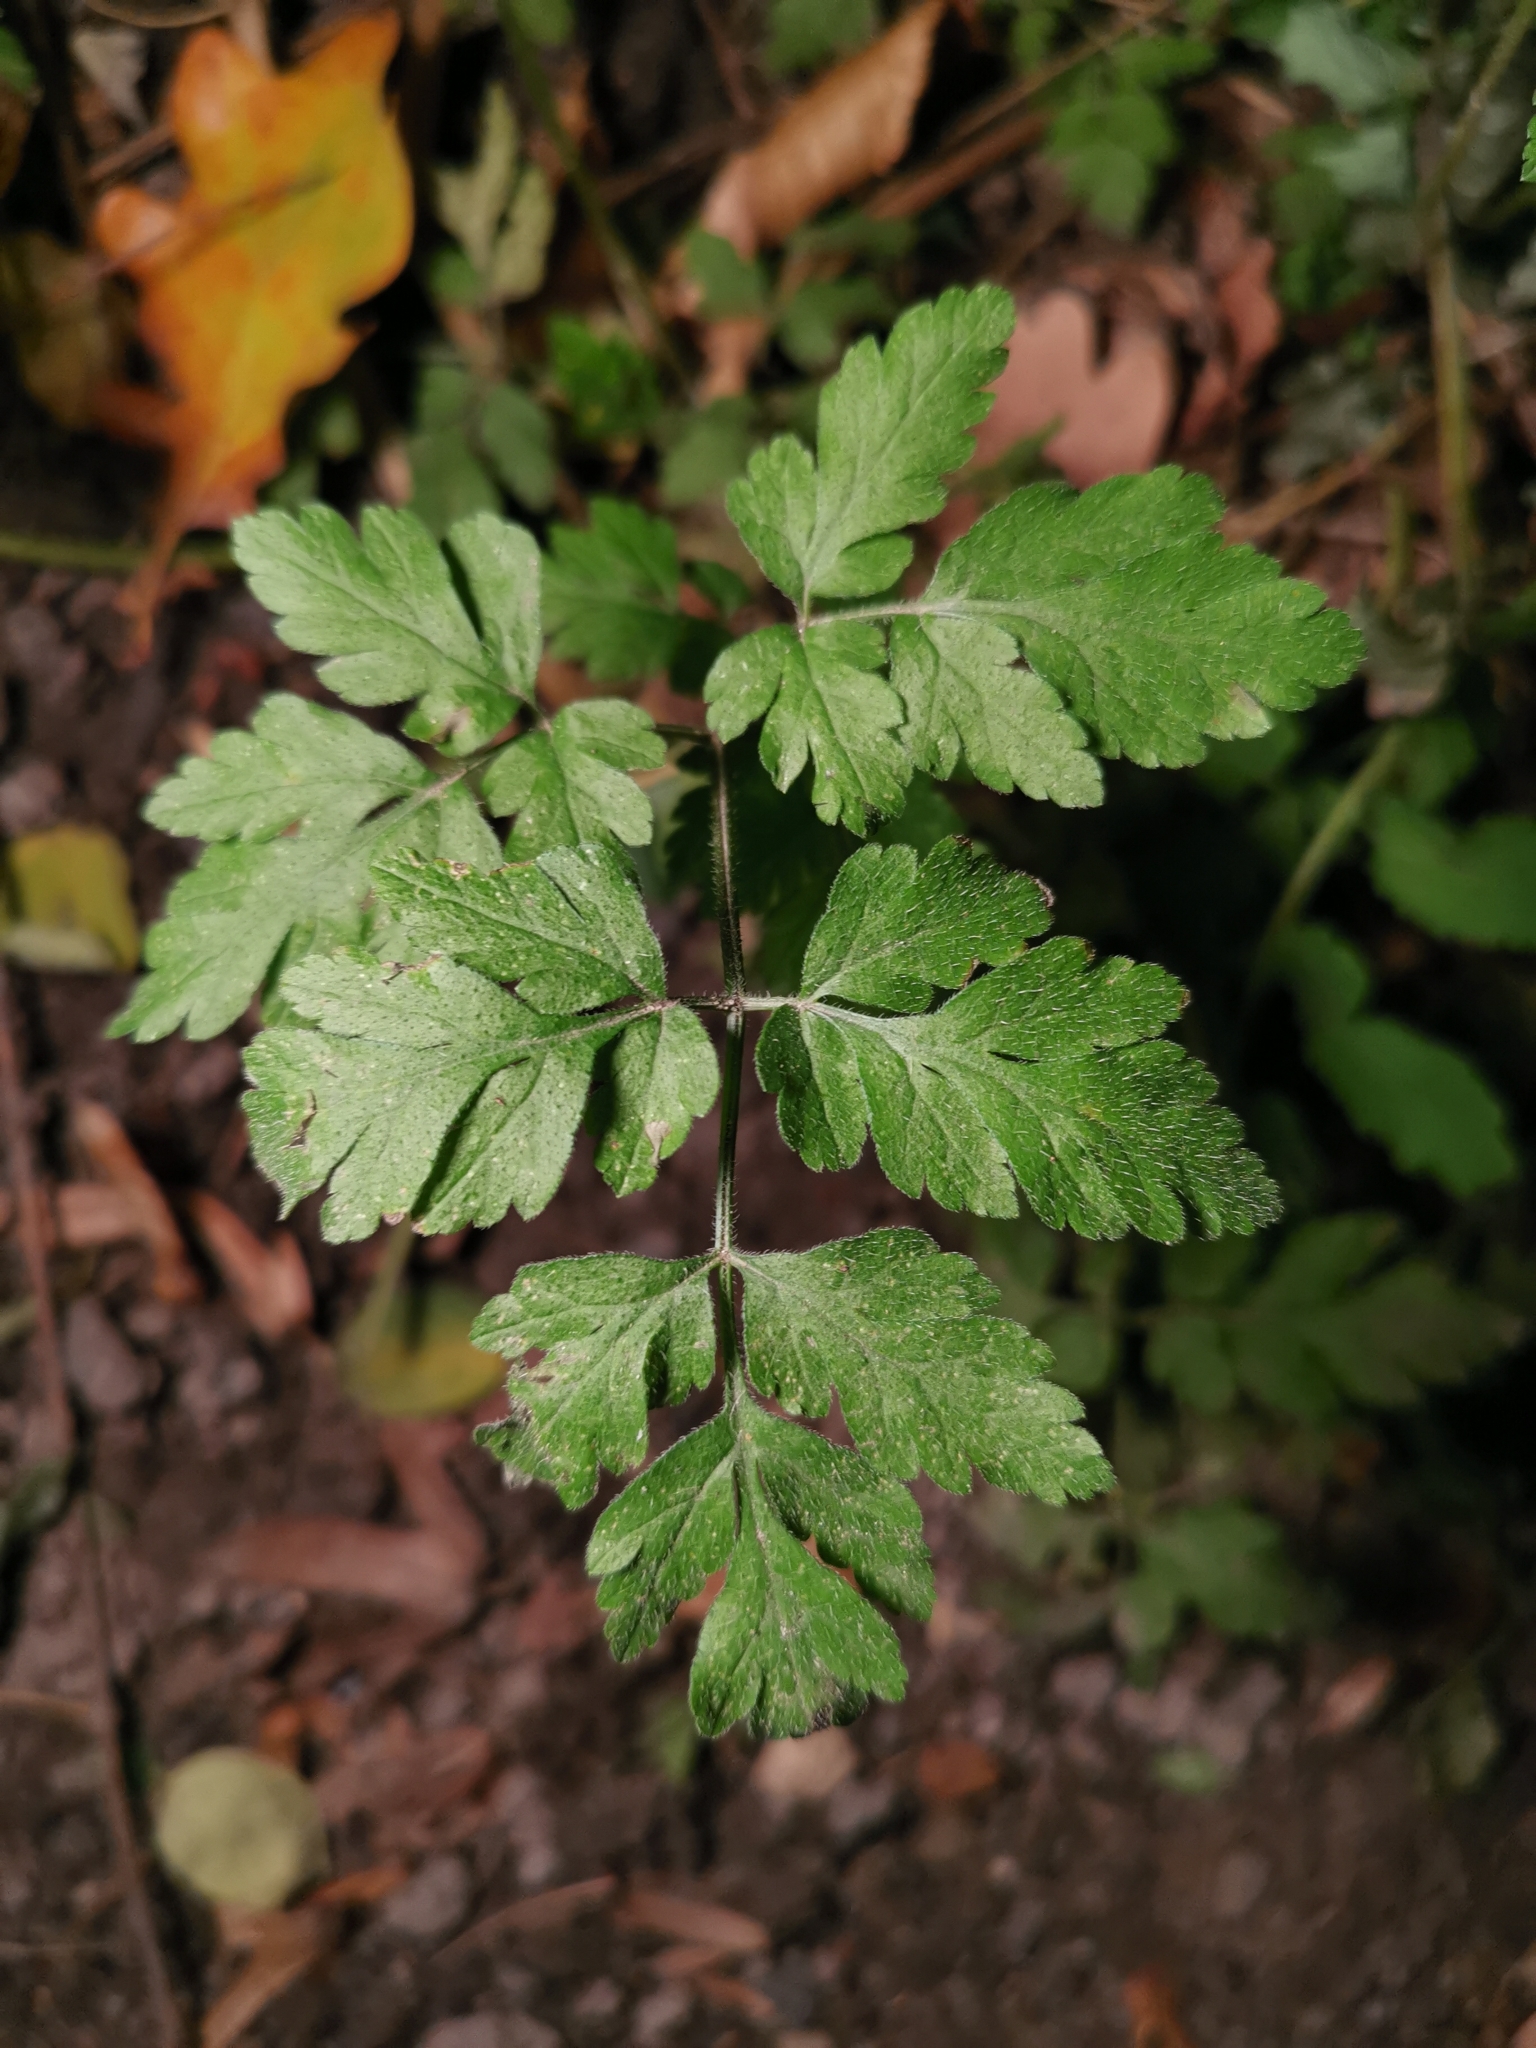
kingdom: Plantae
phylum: Tracheophyta
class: Magnoliopsida
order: Apiales
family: Apiaceae
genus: Chaerophyllum
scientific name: Chaerophyllum temulum
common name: Rough chervil
